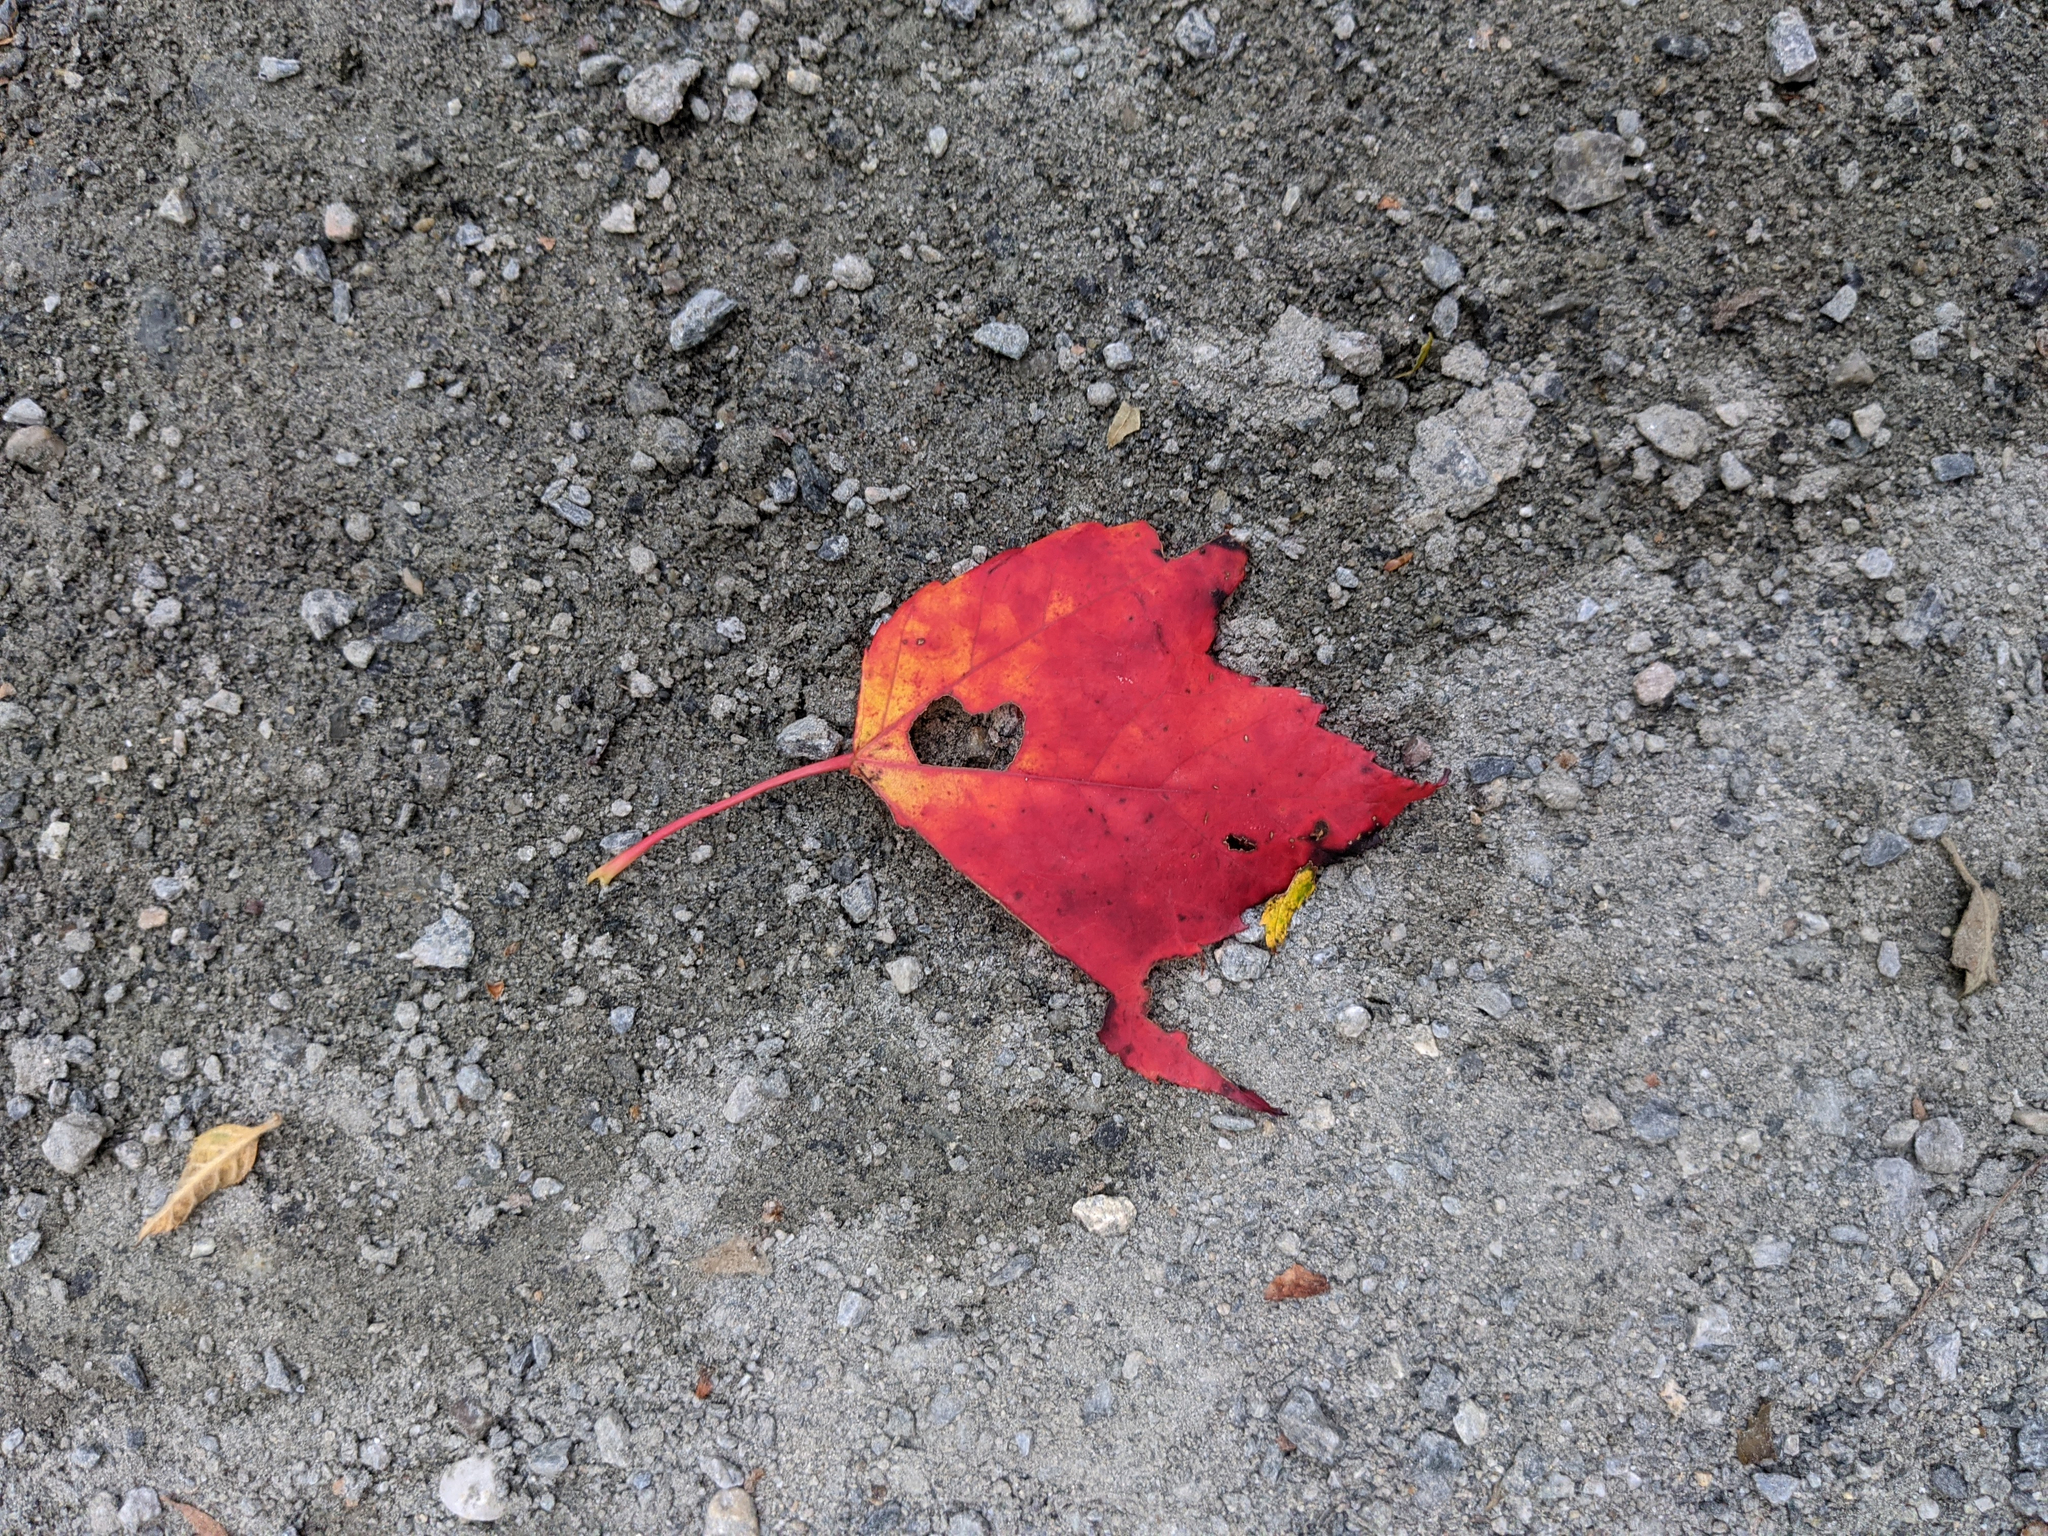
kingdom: Plantae
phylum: Tracheophyta
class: Magnoliopsida
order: Sapindales
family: Sapindaceae
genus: Acer
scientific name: Acer rubrum
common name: Red maple
